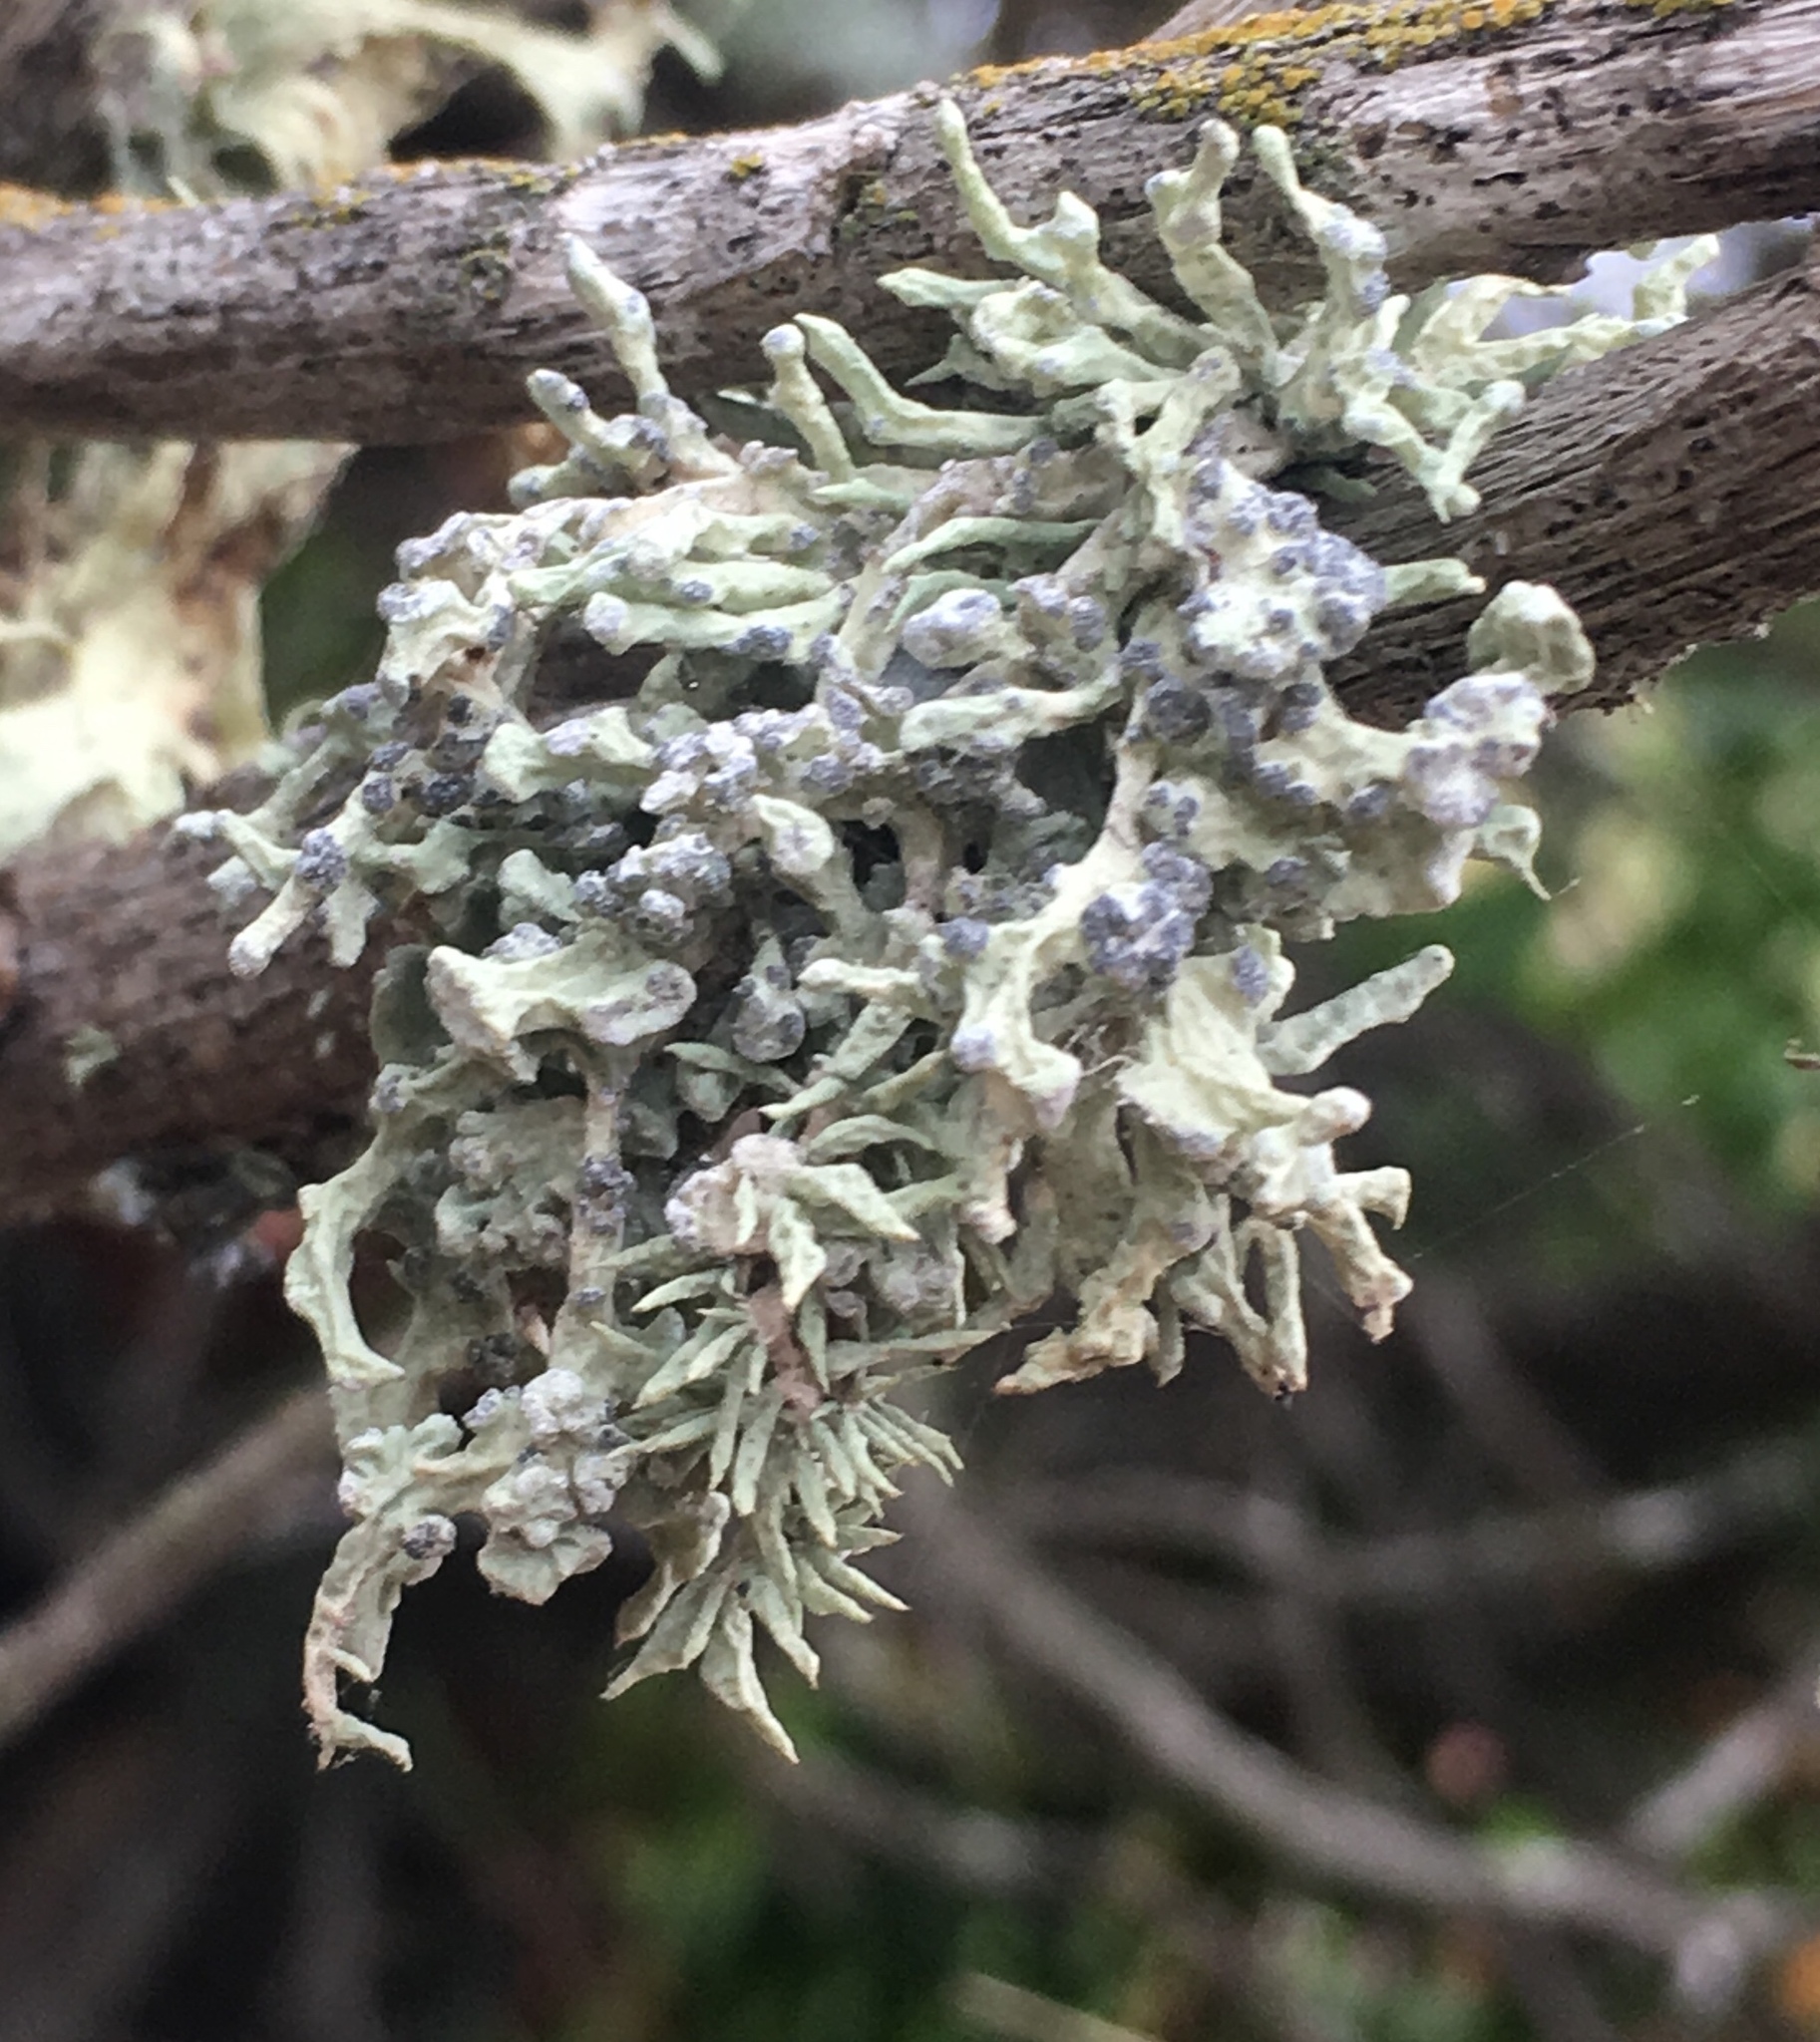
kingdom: Fungi
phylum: Ascomycota
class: Lecanoromycetes
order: Lecanorales
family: Ramalinaceae
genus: Niebla
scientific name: Niebla cephalota
